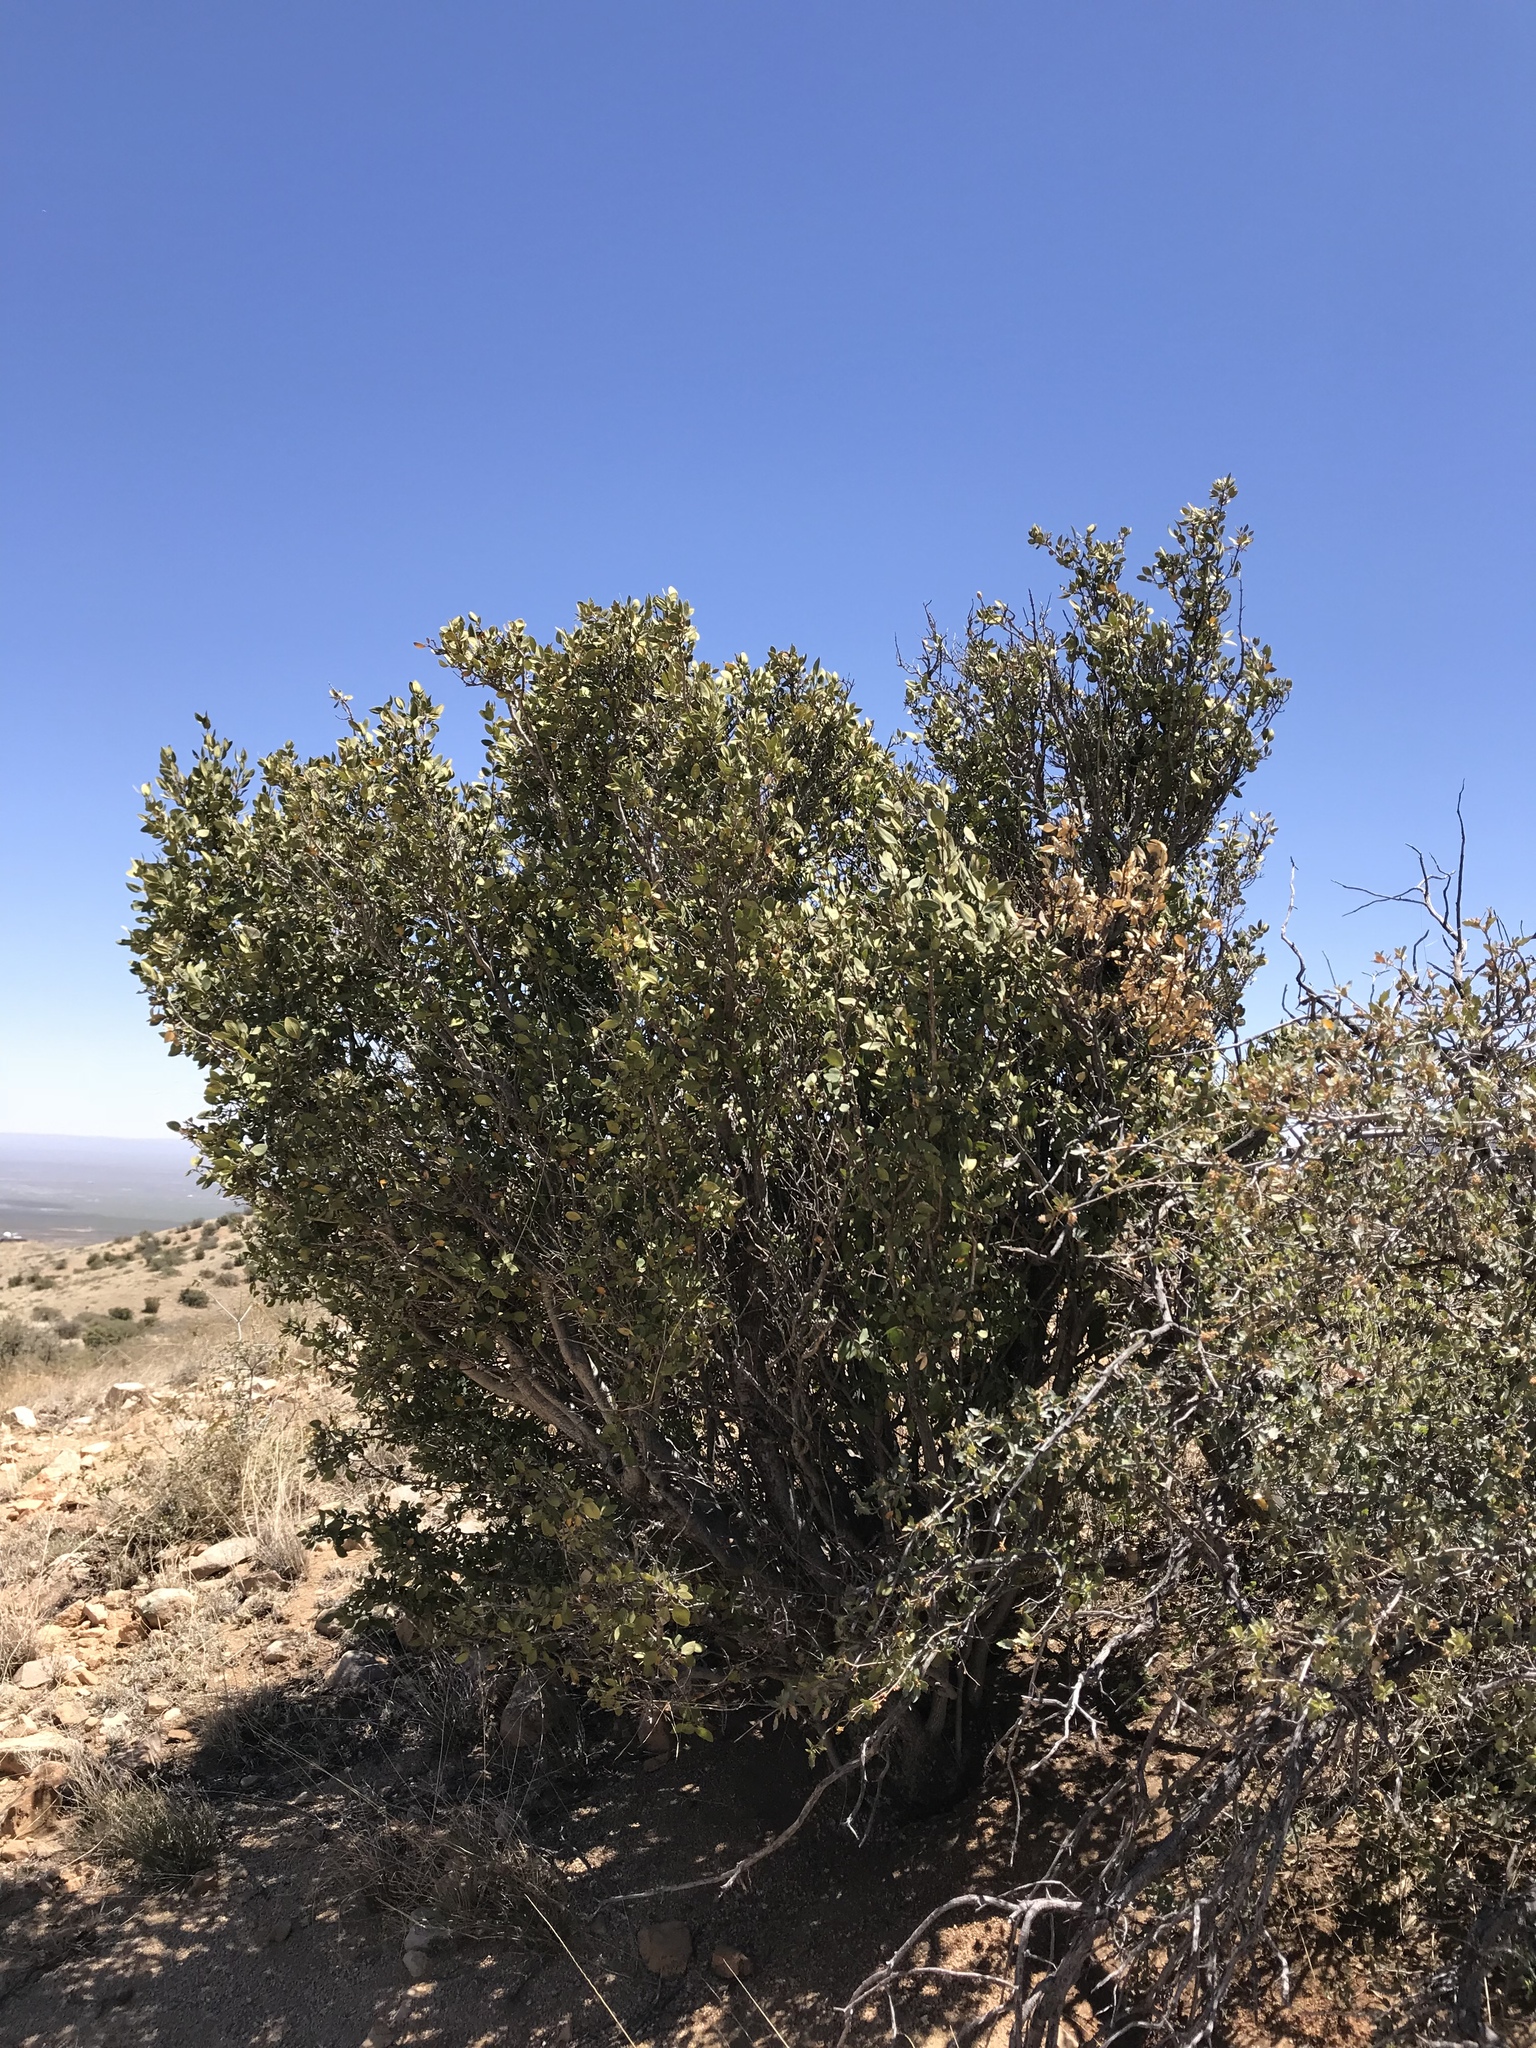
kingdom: Plantae
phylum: Tracheophyta
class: Magnoliopsida
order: Garryales
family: Garryaceae
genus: Garrya
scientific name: Garrya wrightii
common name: Wright's silktassel
